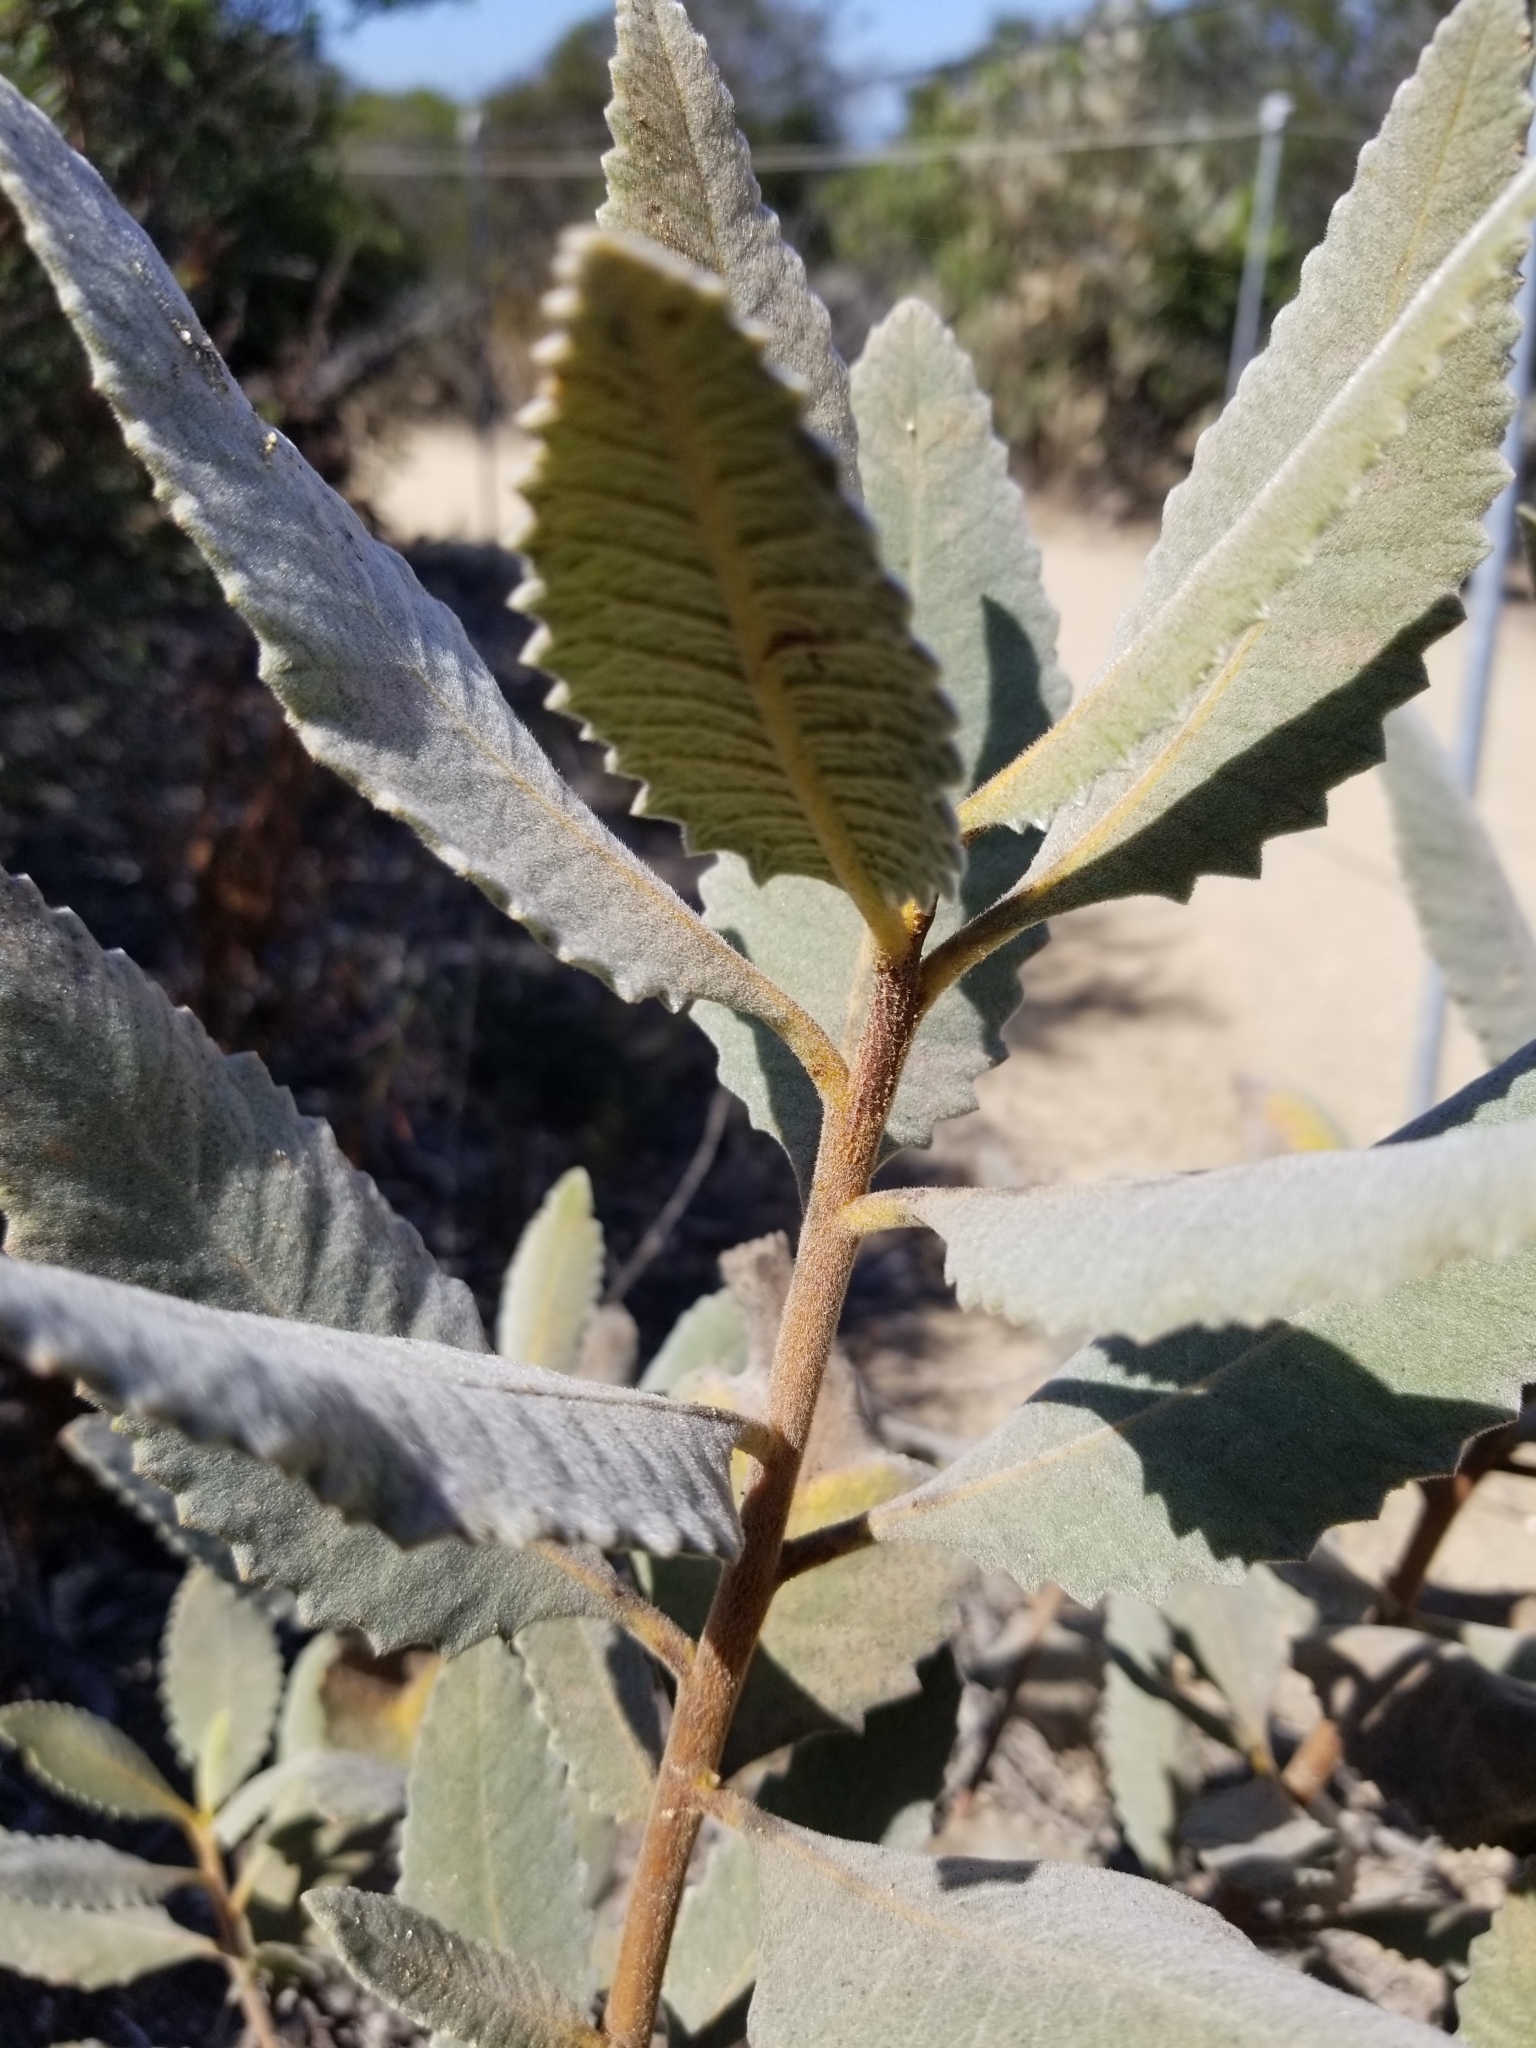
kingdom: Plantae
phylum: Tracheophyta
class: Magnoliopsida
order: Boraginales
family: Namaceae
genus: Eriodictyon
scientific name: Eriodictyon crassifolium
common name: Thick-leaf yerba-santa
